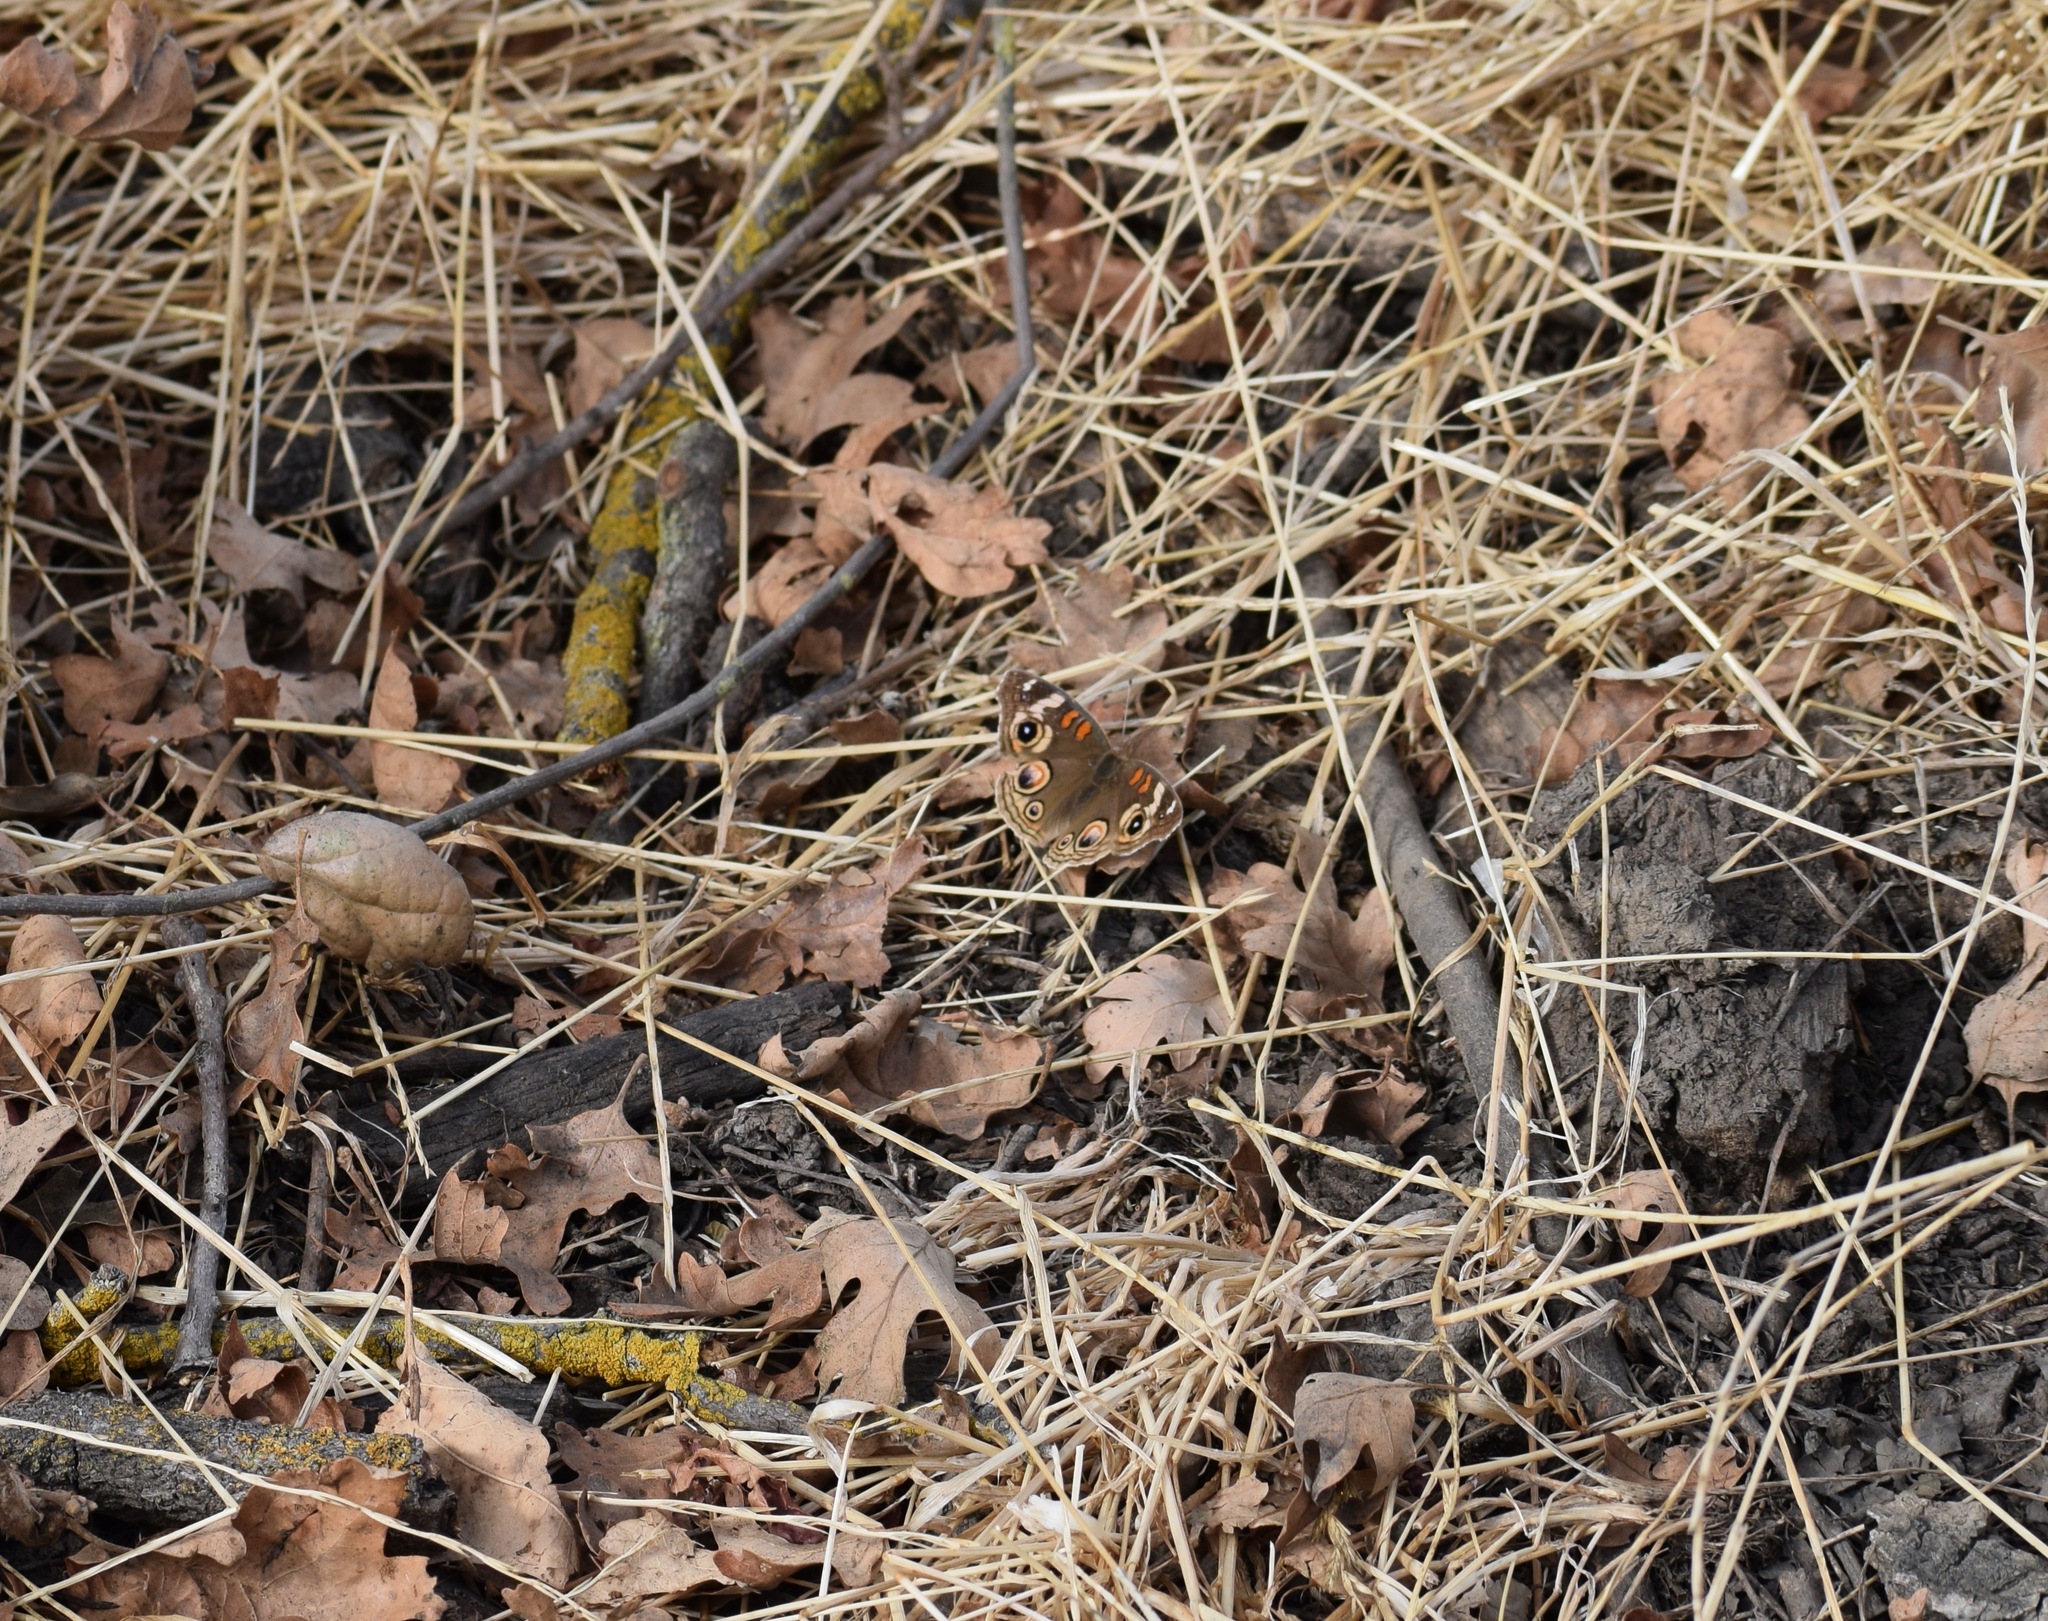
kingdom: Animalia
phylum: Arthropoda
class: Insecta
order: Lepidoptera
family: Nymphalidae
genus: Junonia
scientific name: Junonia grisea
